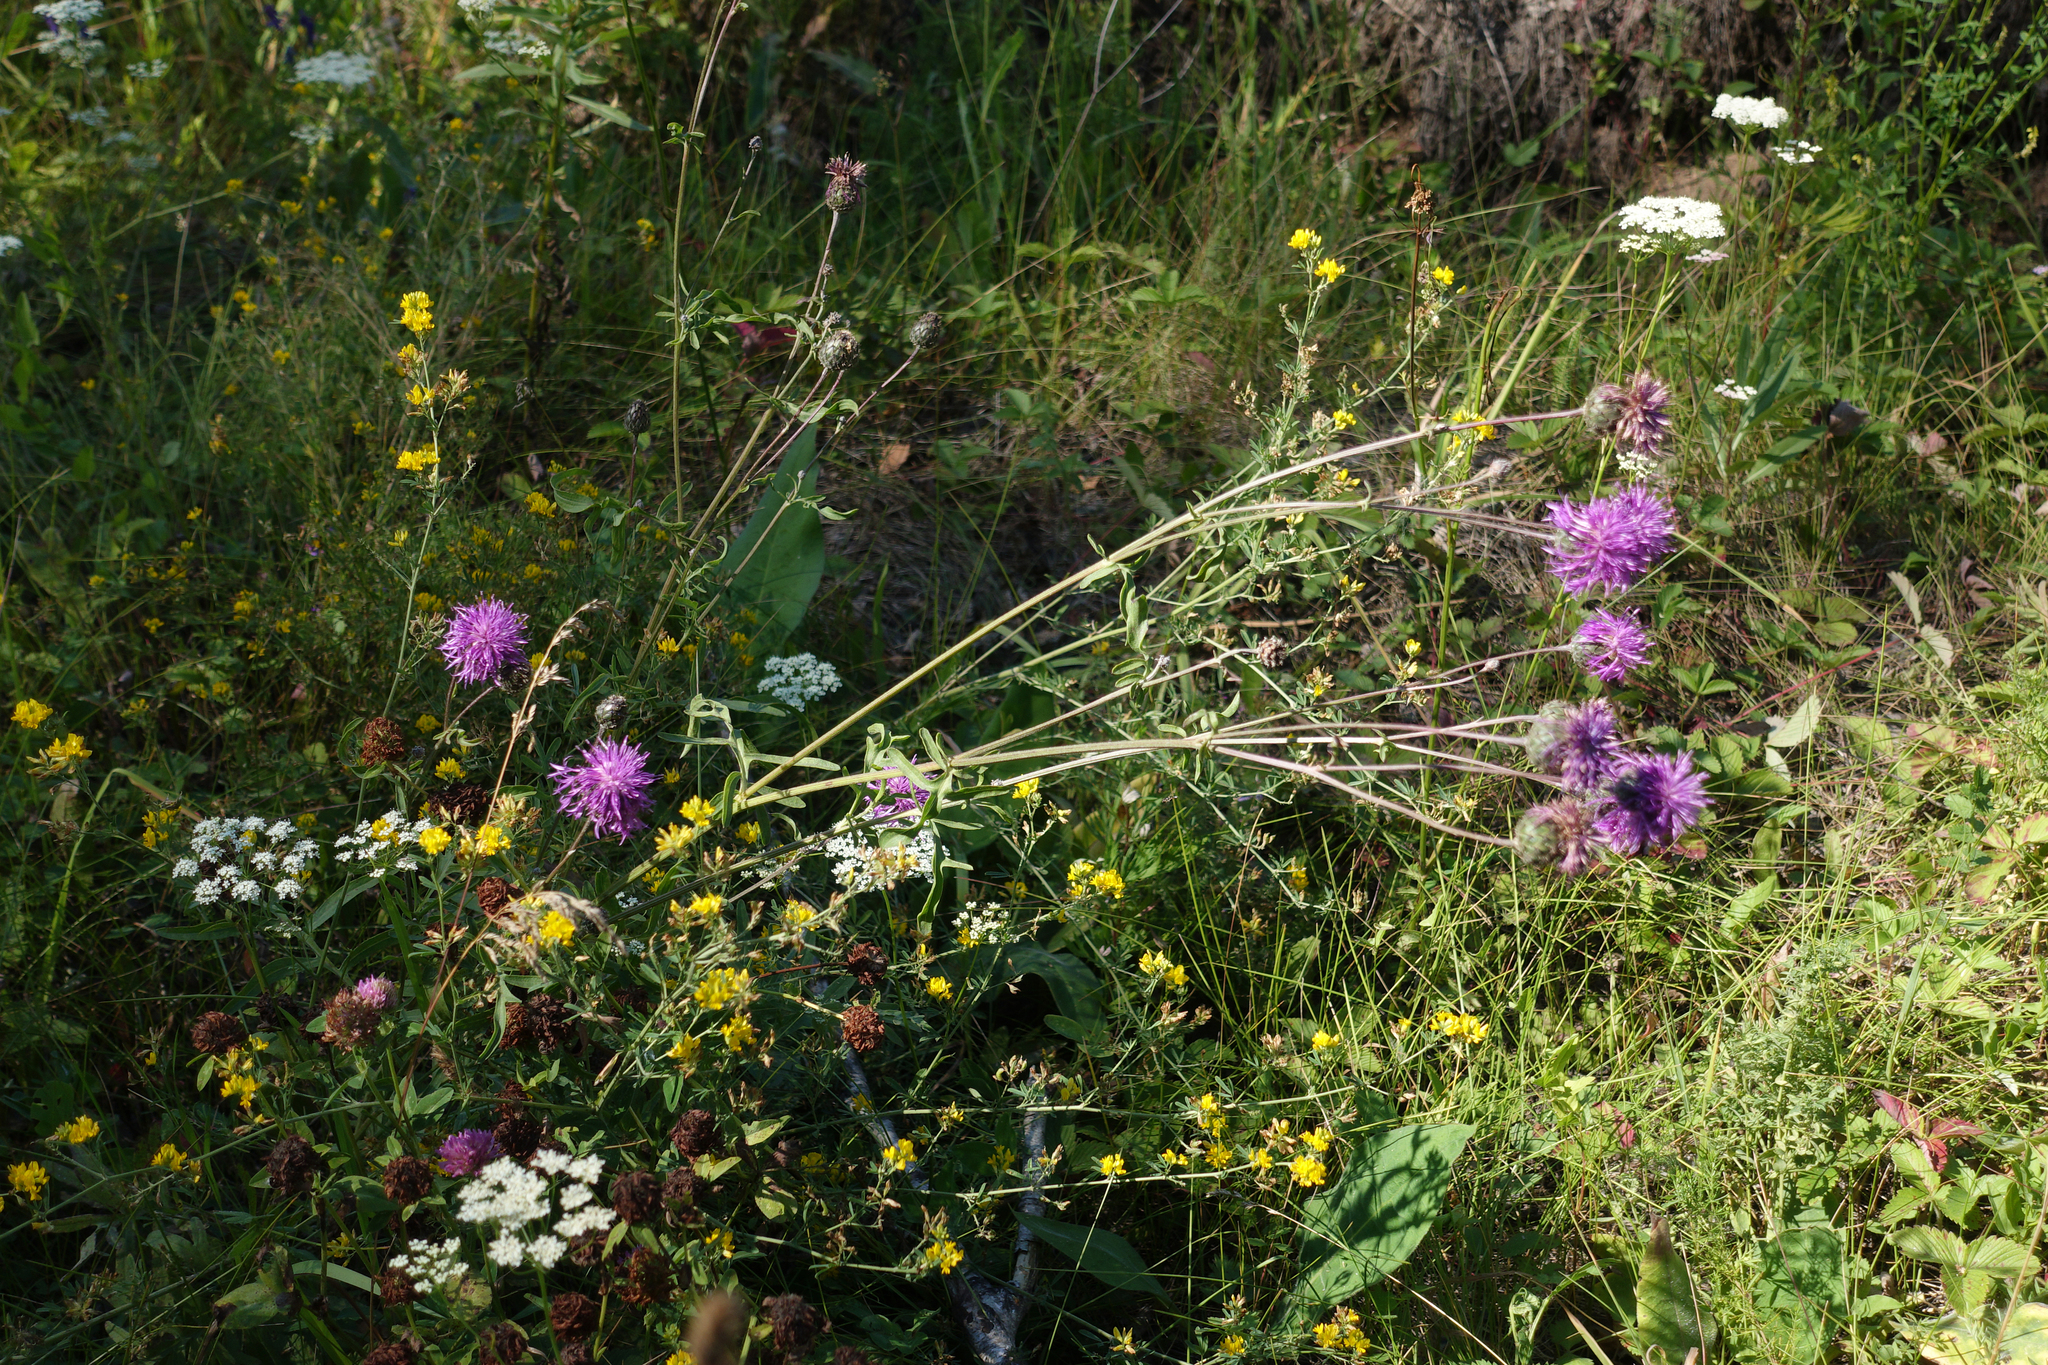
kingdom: Plantae
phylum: Tracheophyta
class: Magnoliopsida
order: Asterales
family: Asteraceae
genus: Centaurea
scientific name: Centaurea scabiosa
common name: Greater knapweed
